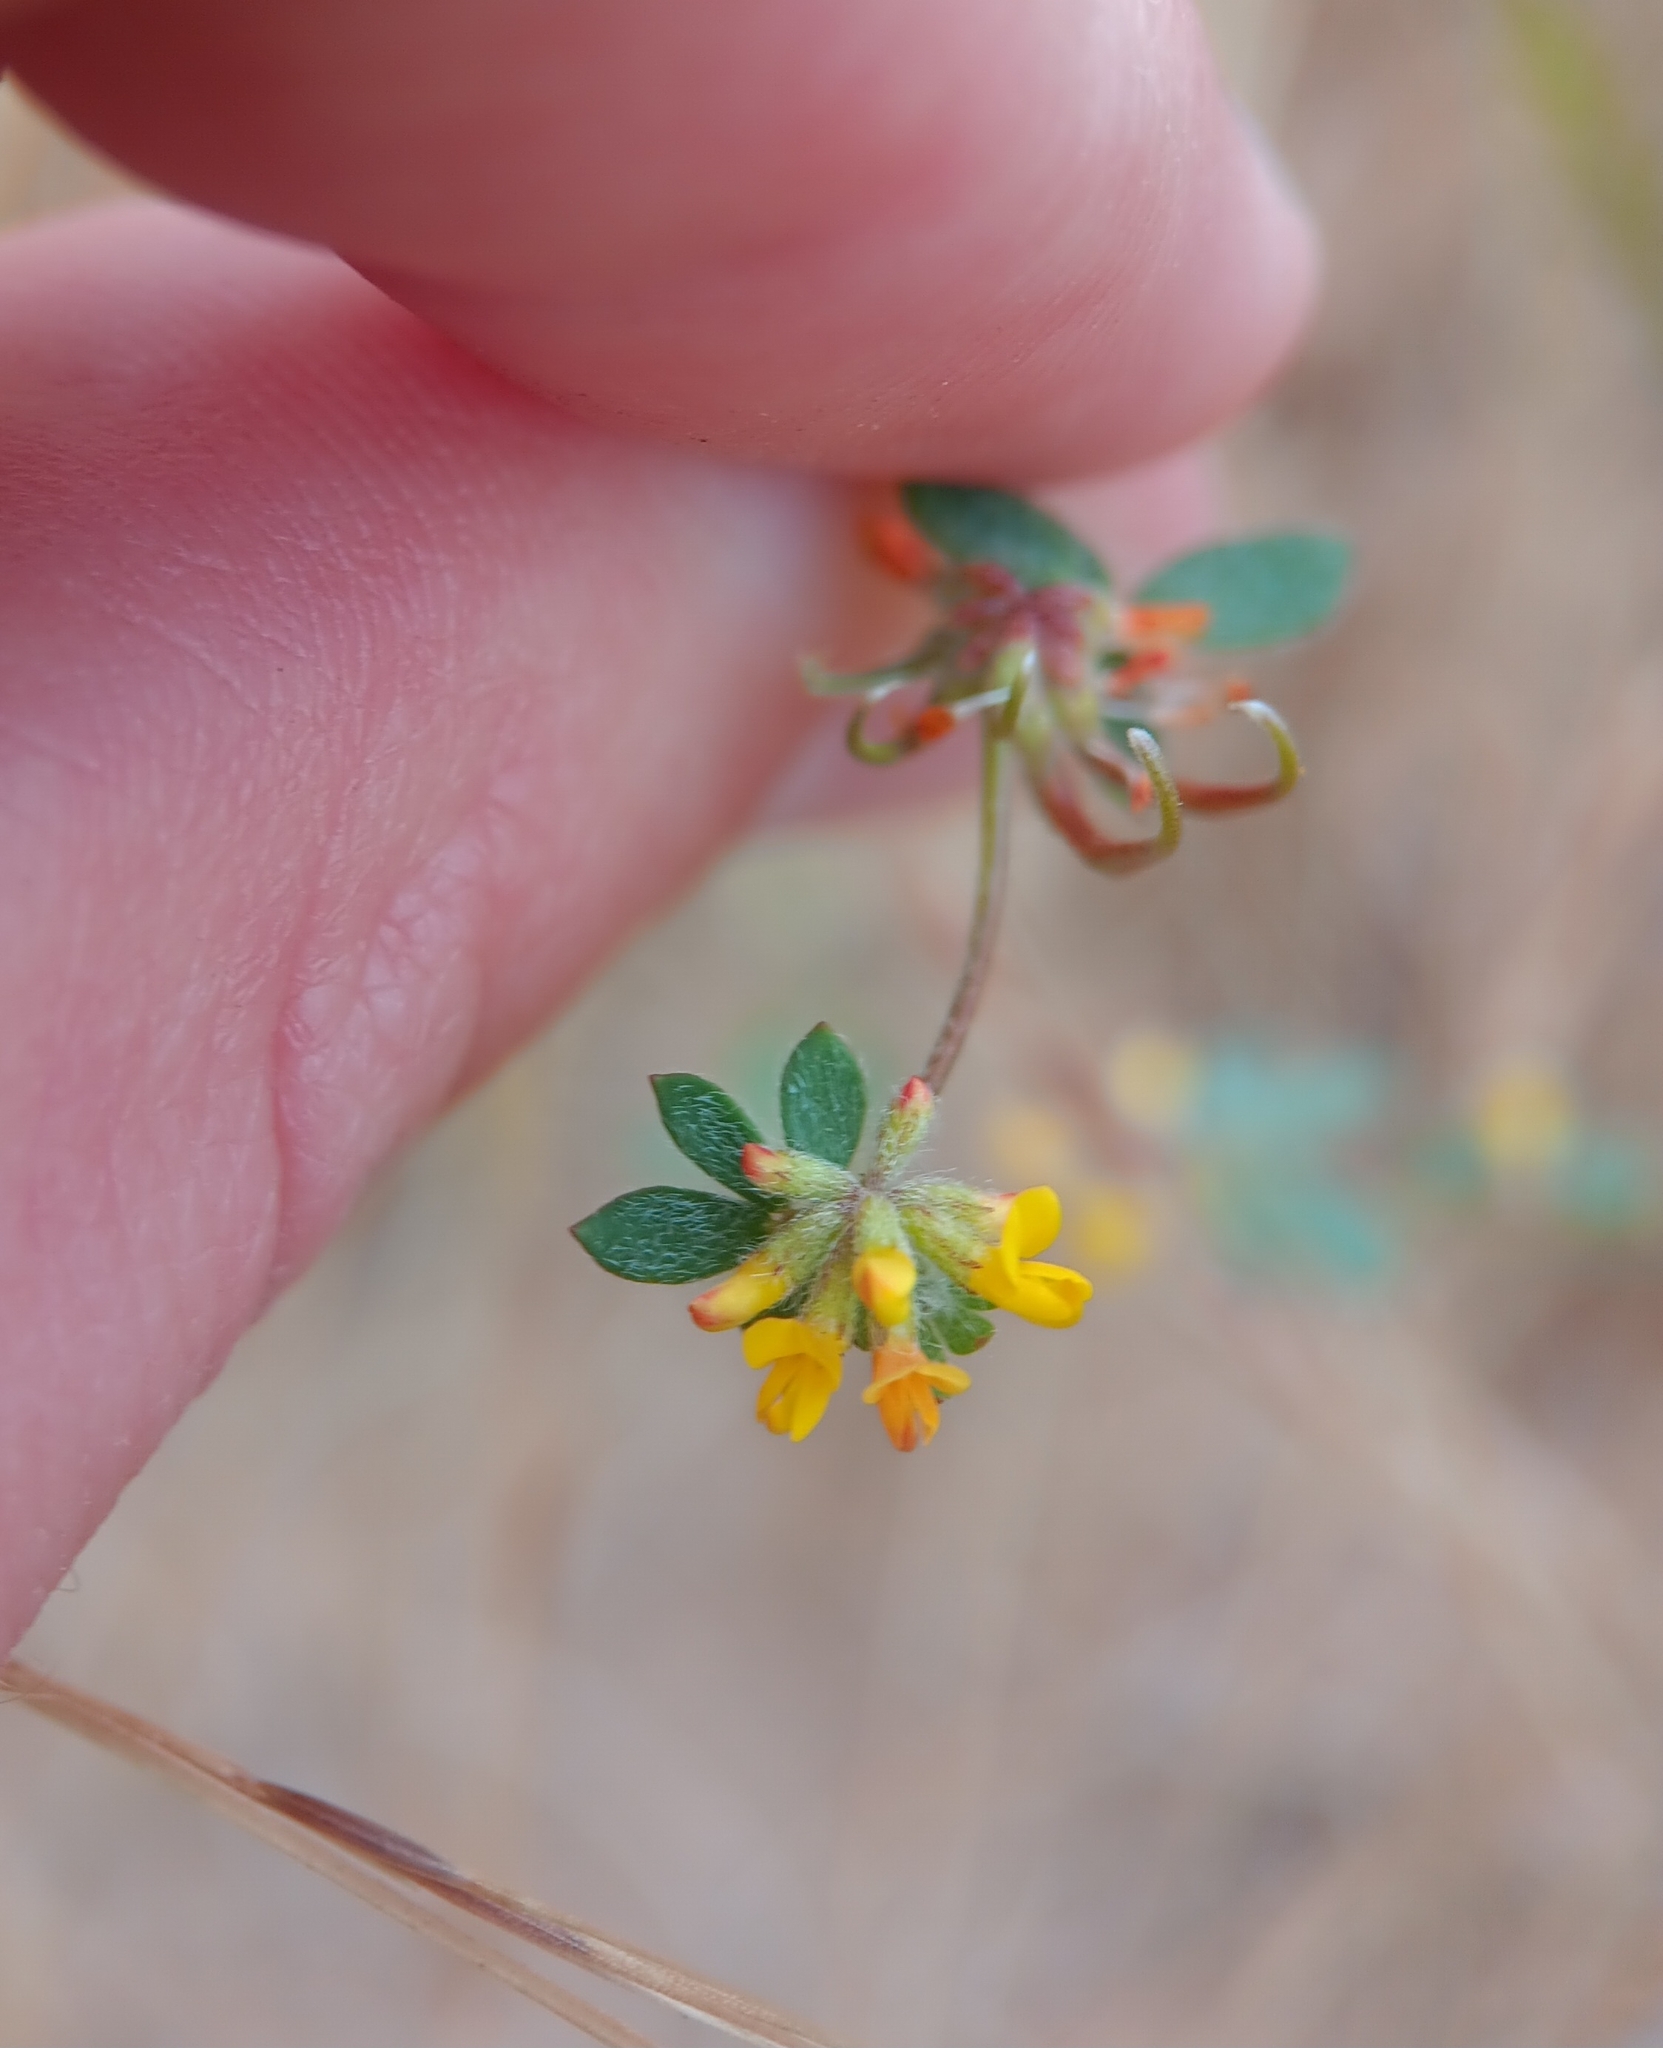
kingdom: Plantae
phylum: Tracheophyta
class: Magnoliopsida
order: Fabales
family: Fabaceae
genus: Acmispon
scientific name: Acmispon micranthus
